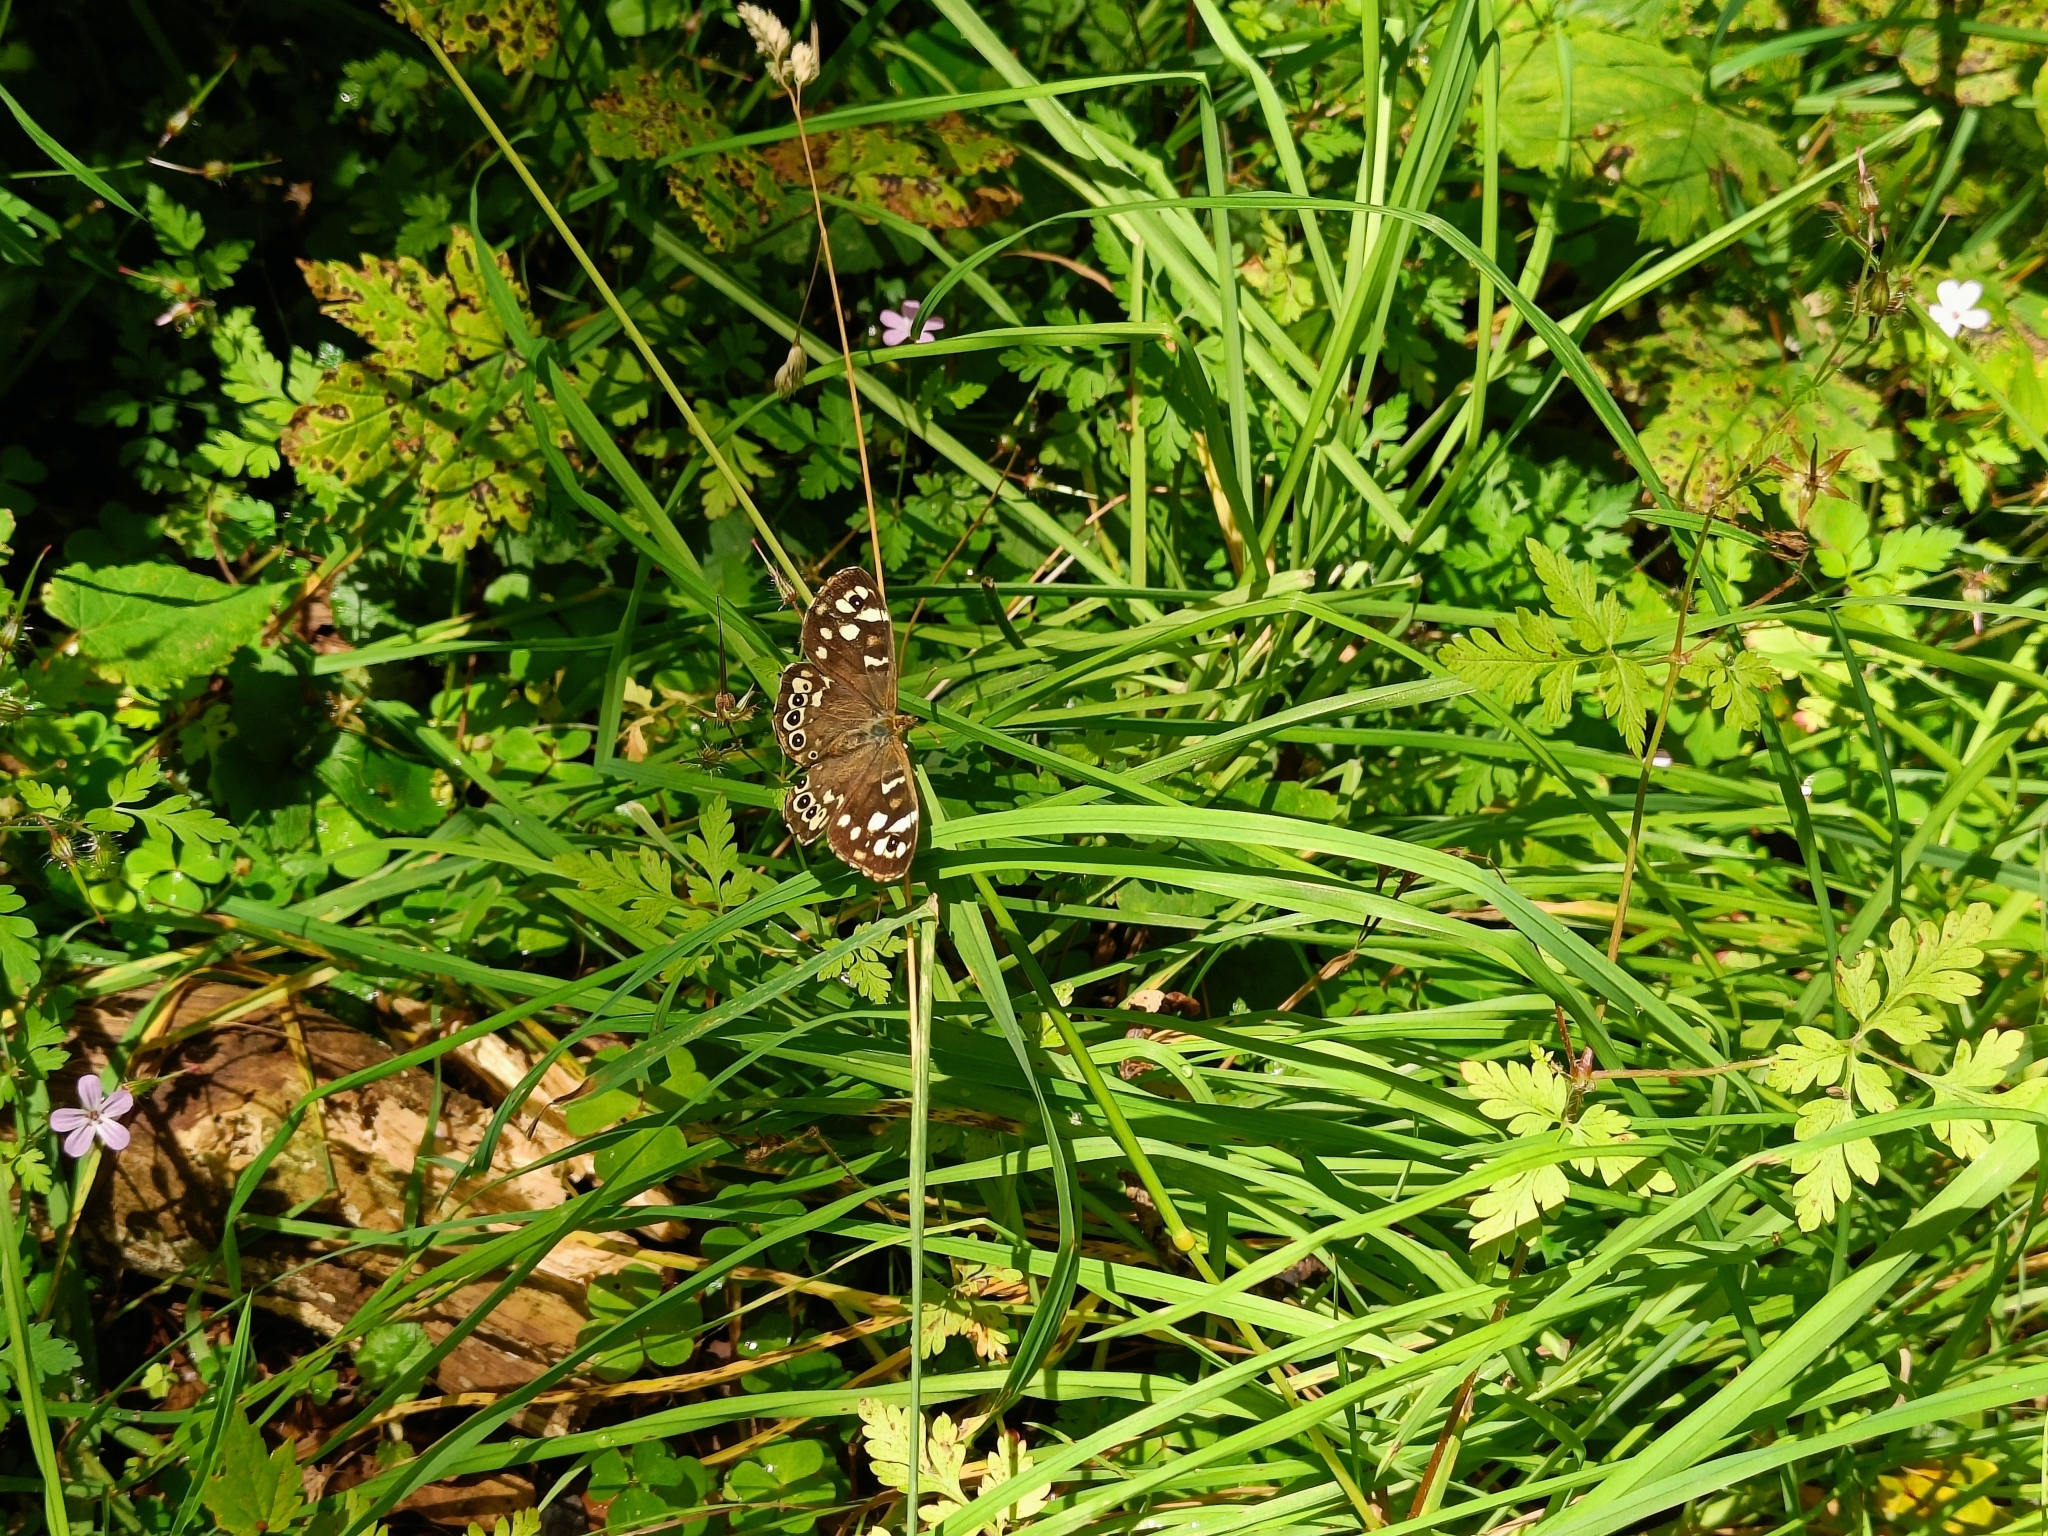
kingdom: Animalia
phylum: Arthropoda
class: Insecta
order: Lepidoptera
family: Nymphalidae
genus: Pararge
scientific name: Pararge aegeria
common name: Speckled wood
